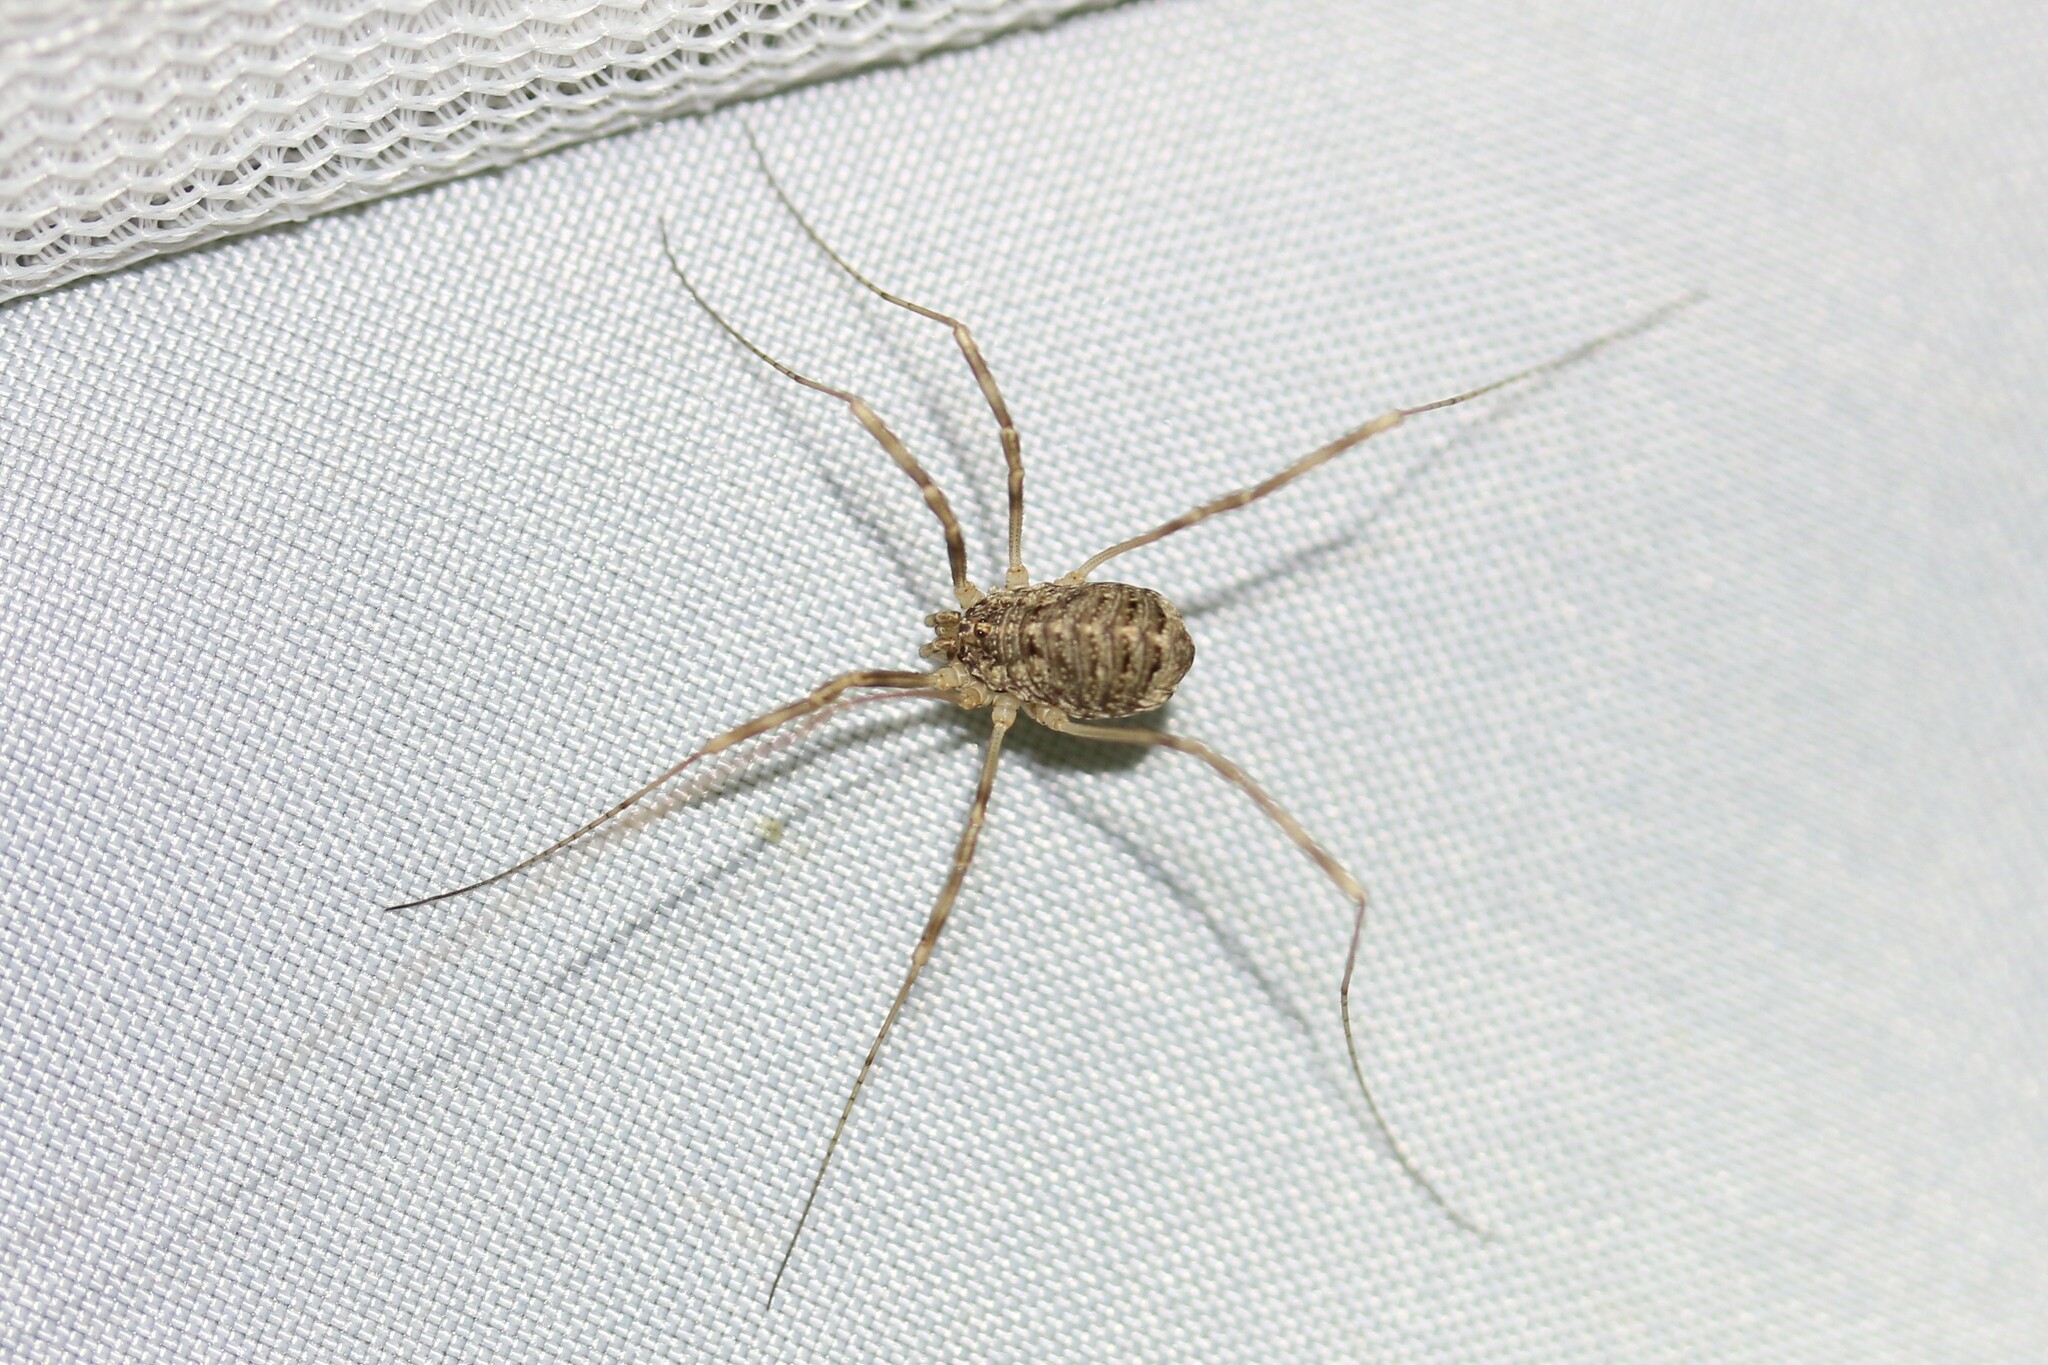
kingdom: Animalia
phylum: Arthropoda
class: Arachnida
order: Opiliones
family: Phalangiidae
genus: Opilio
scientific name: Opilio saxatilis
